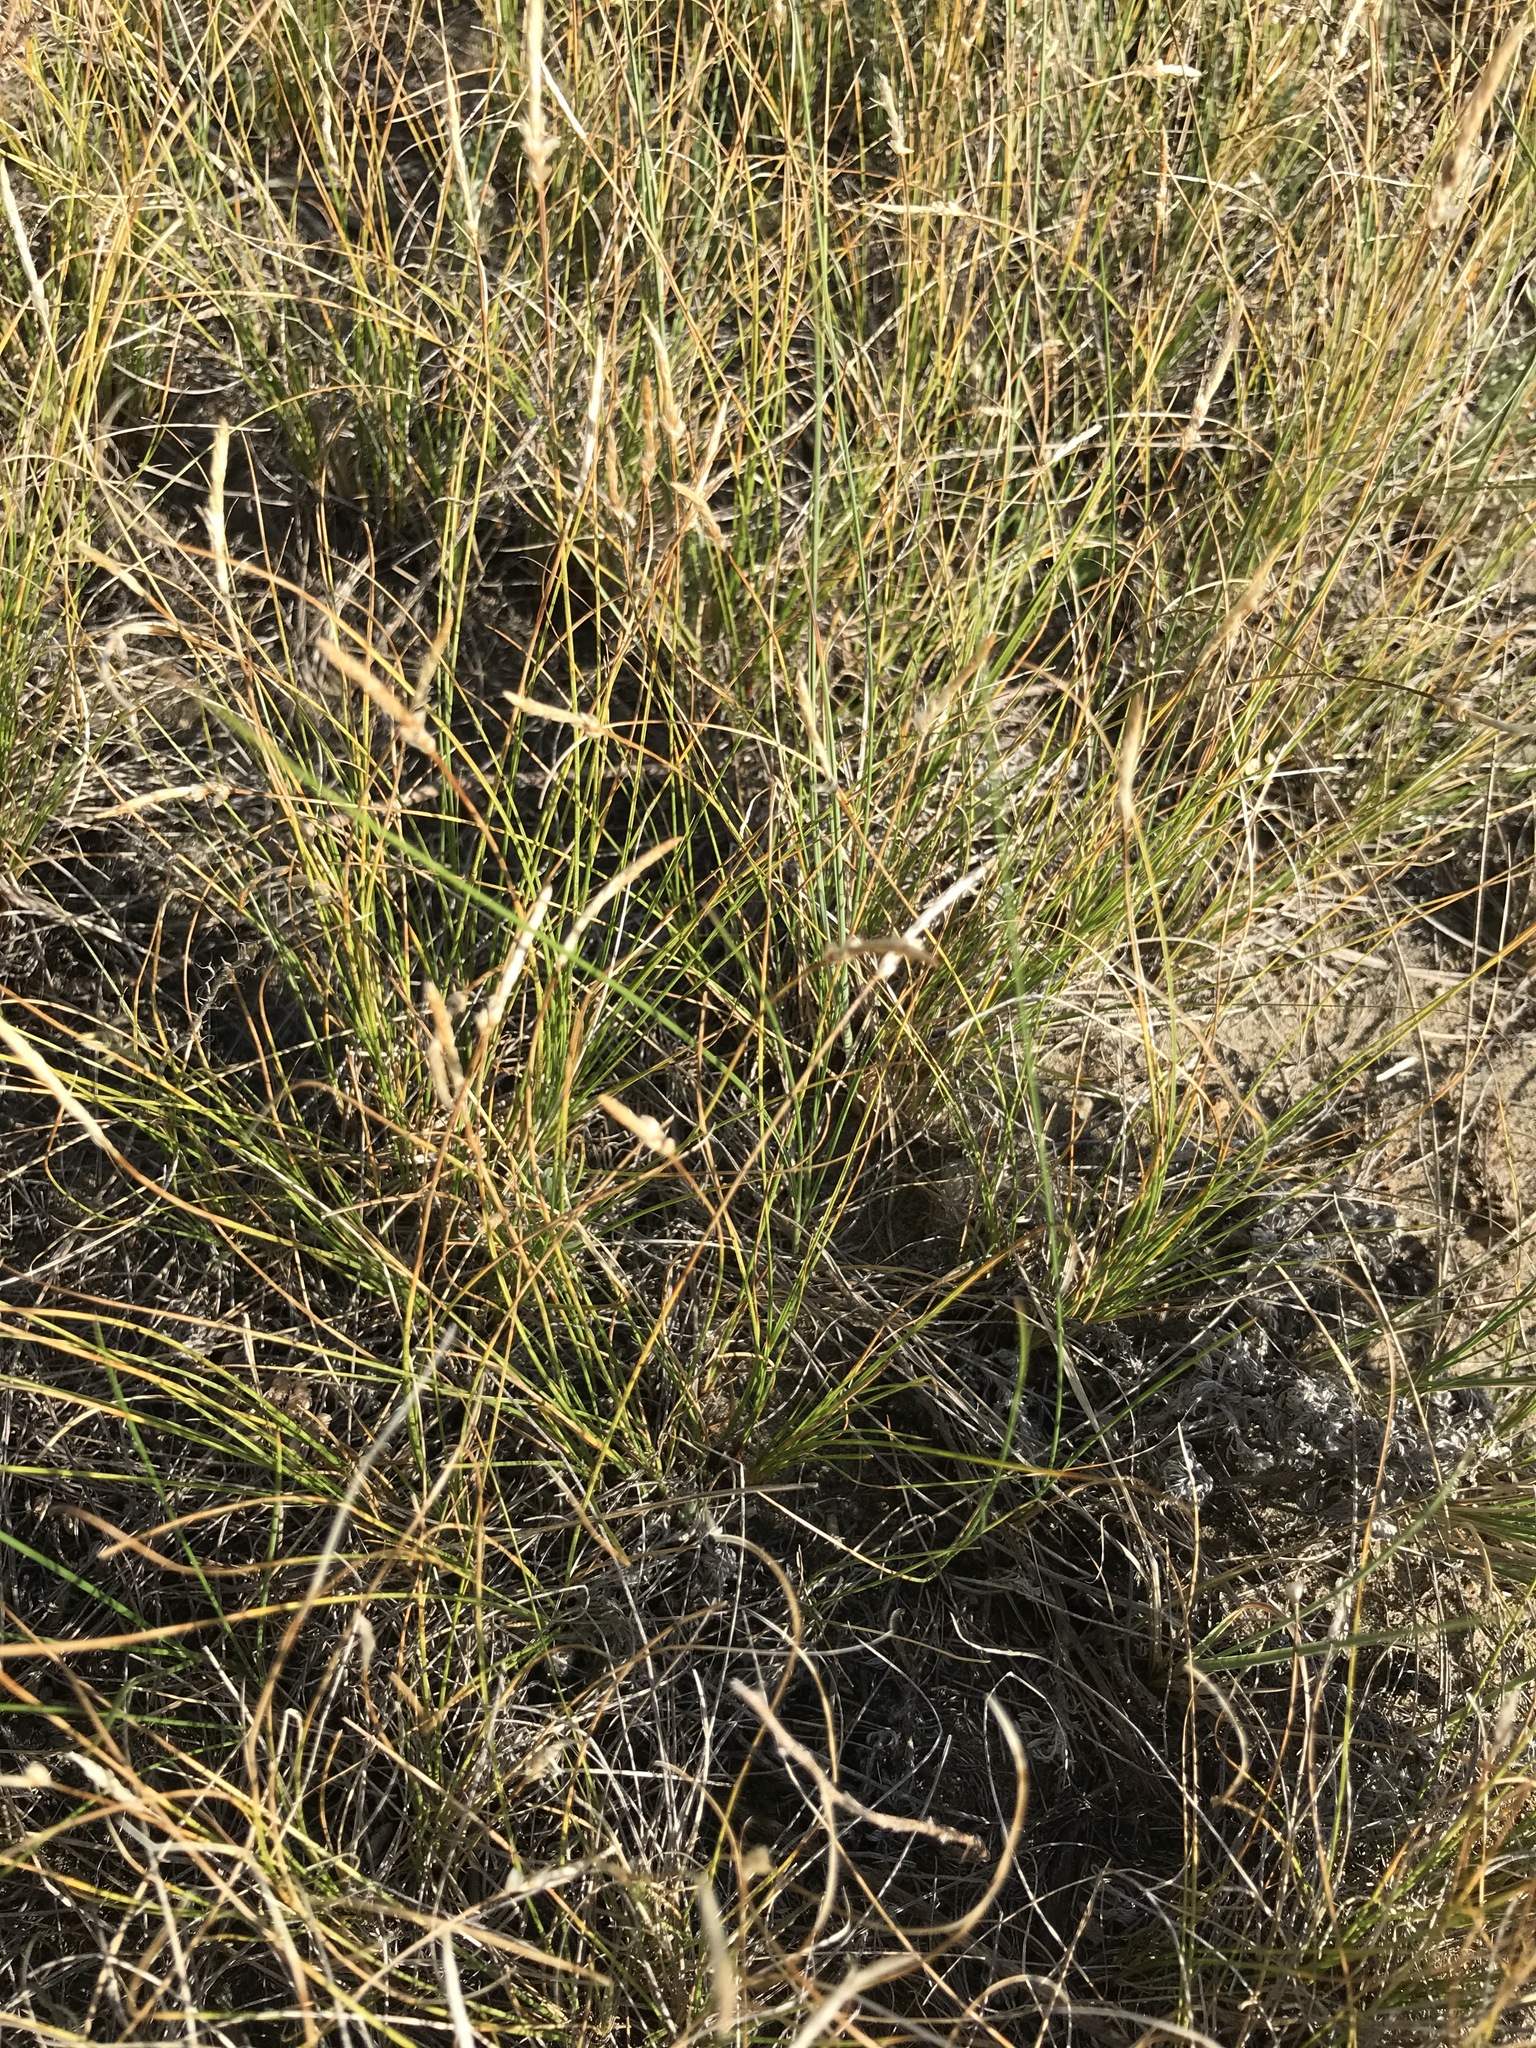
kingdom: Plantae
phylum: Tracheophyta
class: Liliopsida
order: Poales
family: Cyperaceae
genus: Carex
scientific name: Carex filifolia
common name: Threadleaf sedge
